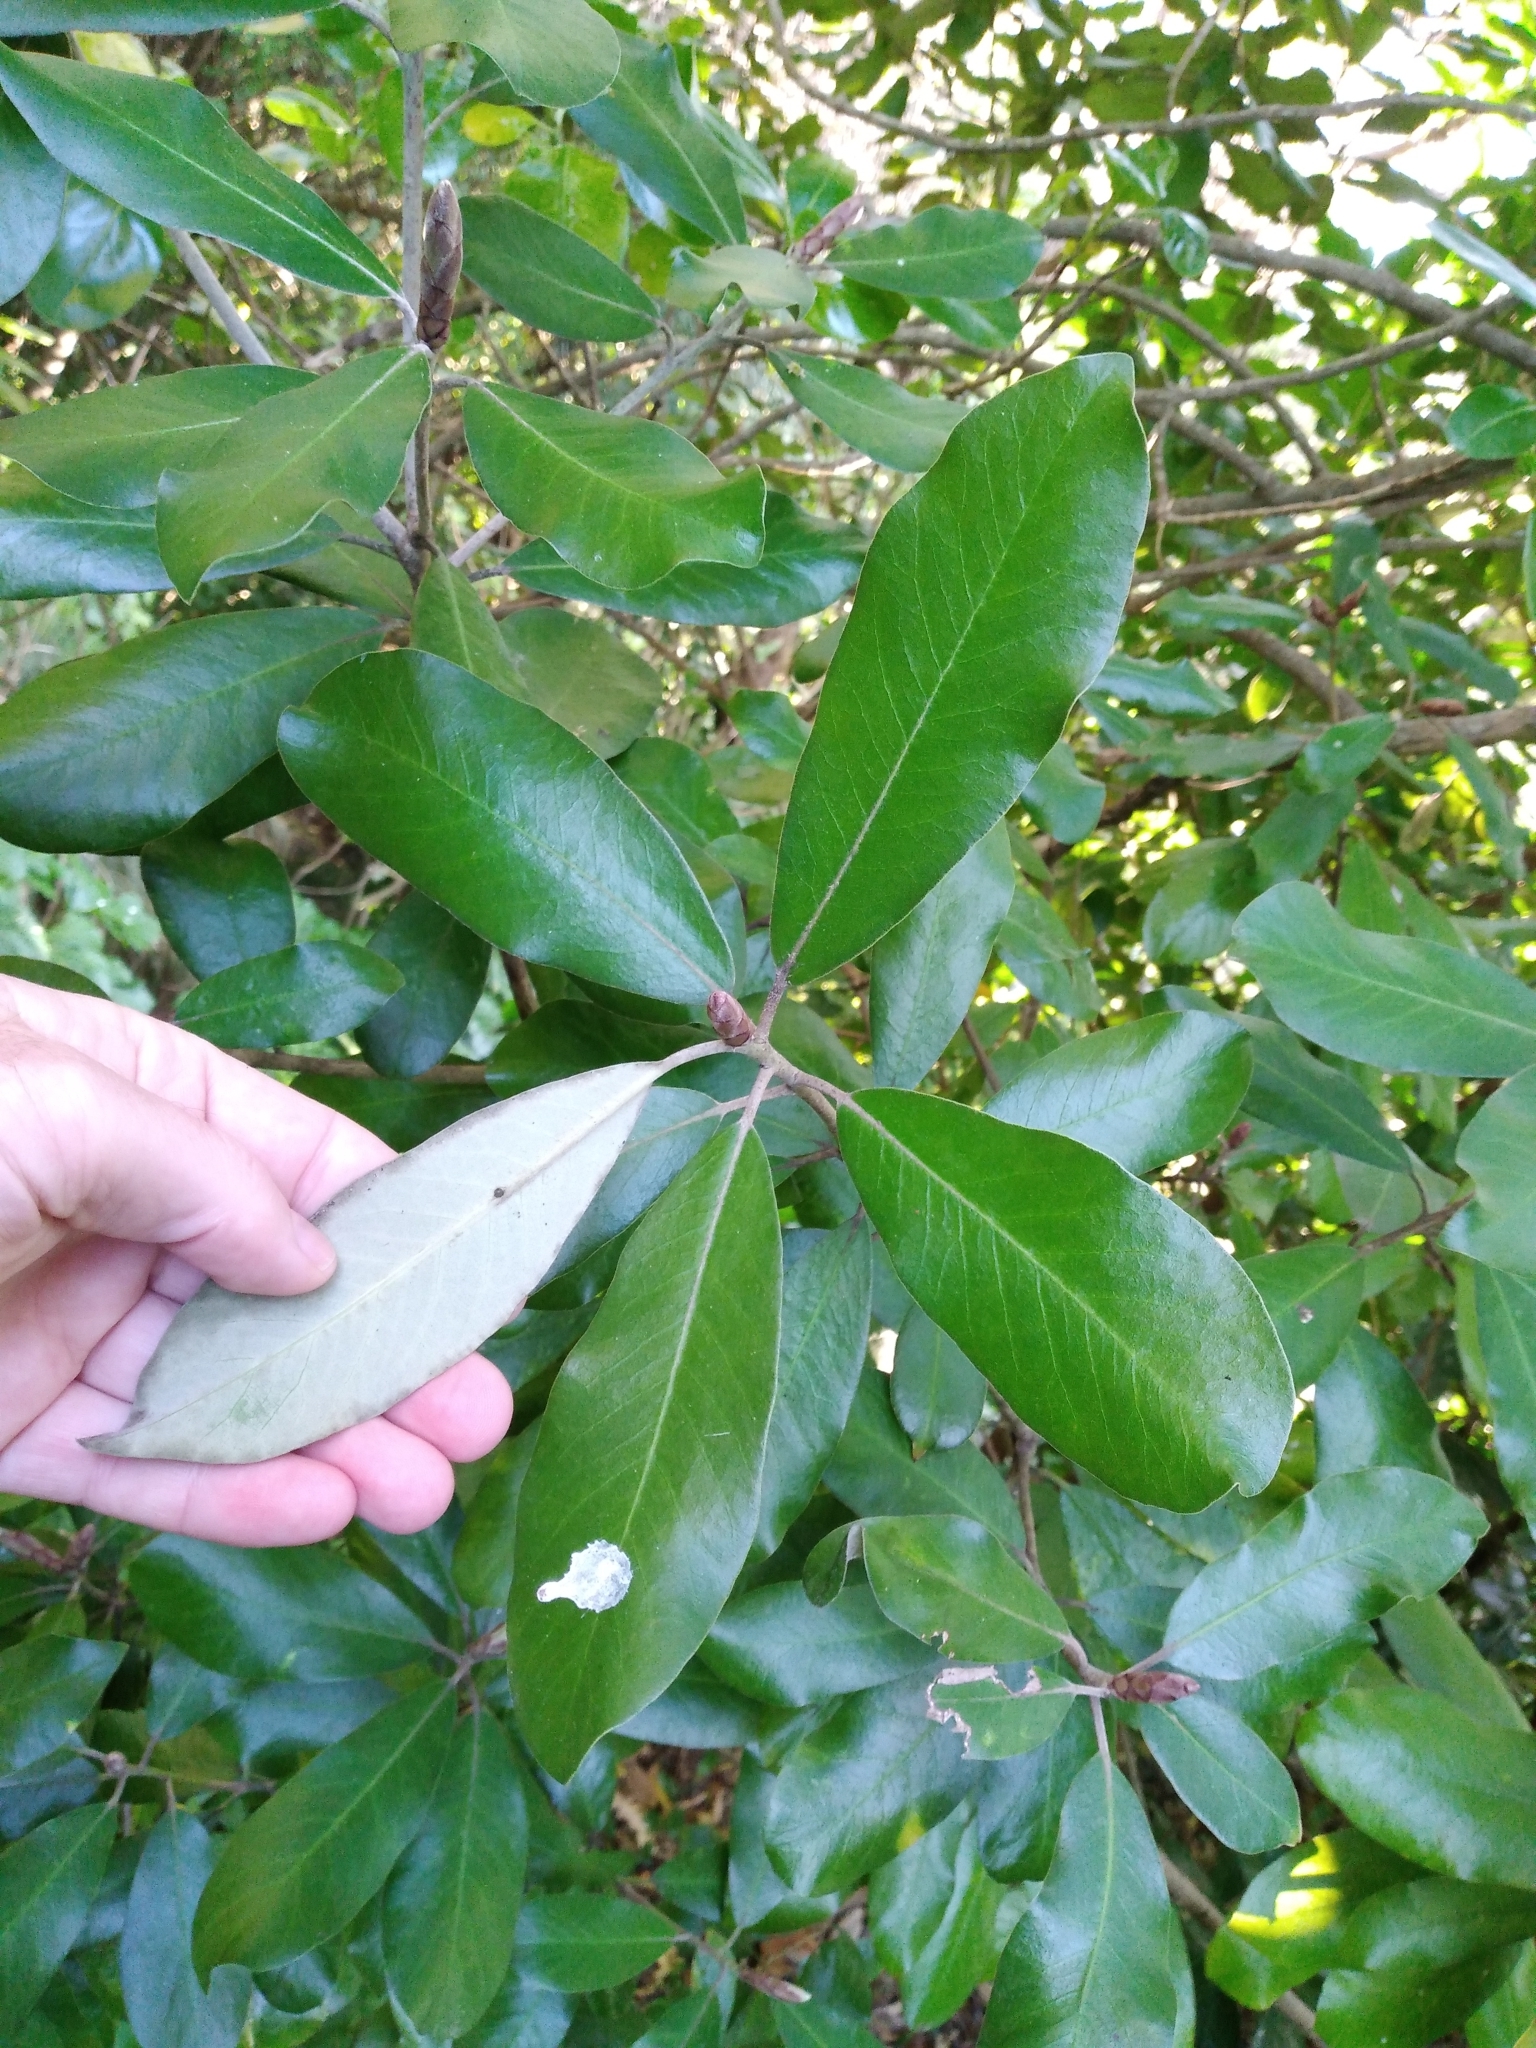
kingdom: Plantae
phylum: Tracheophyta
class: Magnoliopsida
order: Apiales
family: Pittosporaceae
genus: Pittosporum
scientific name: Pittosporum ralphii
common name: Ralph's desertwillow
